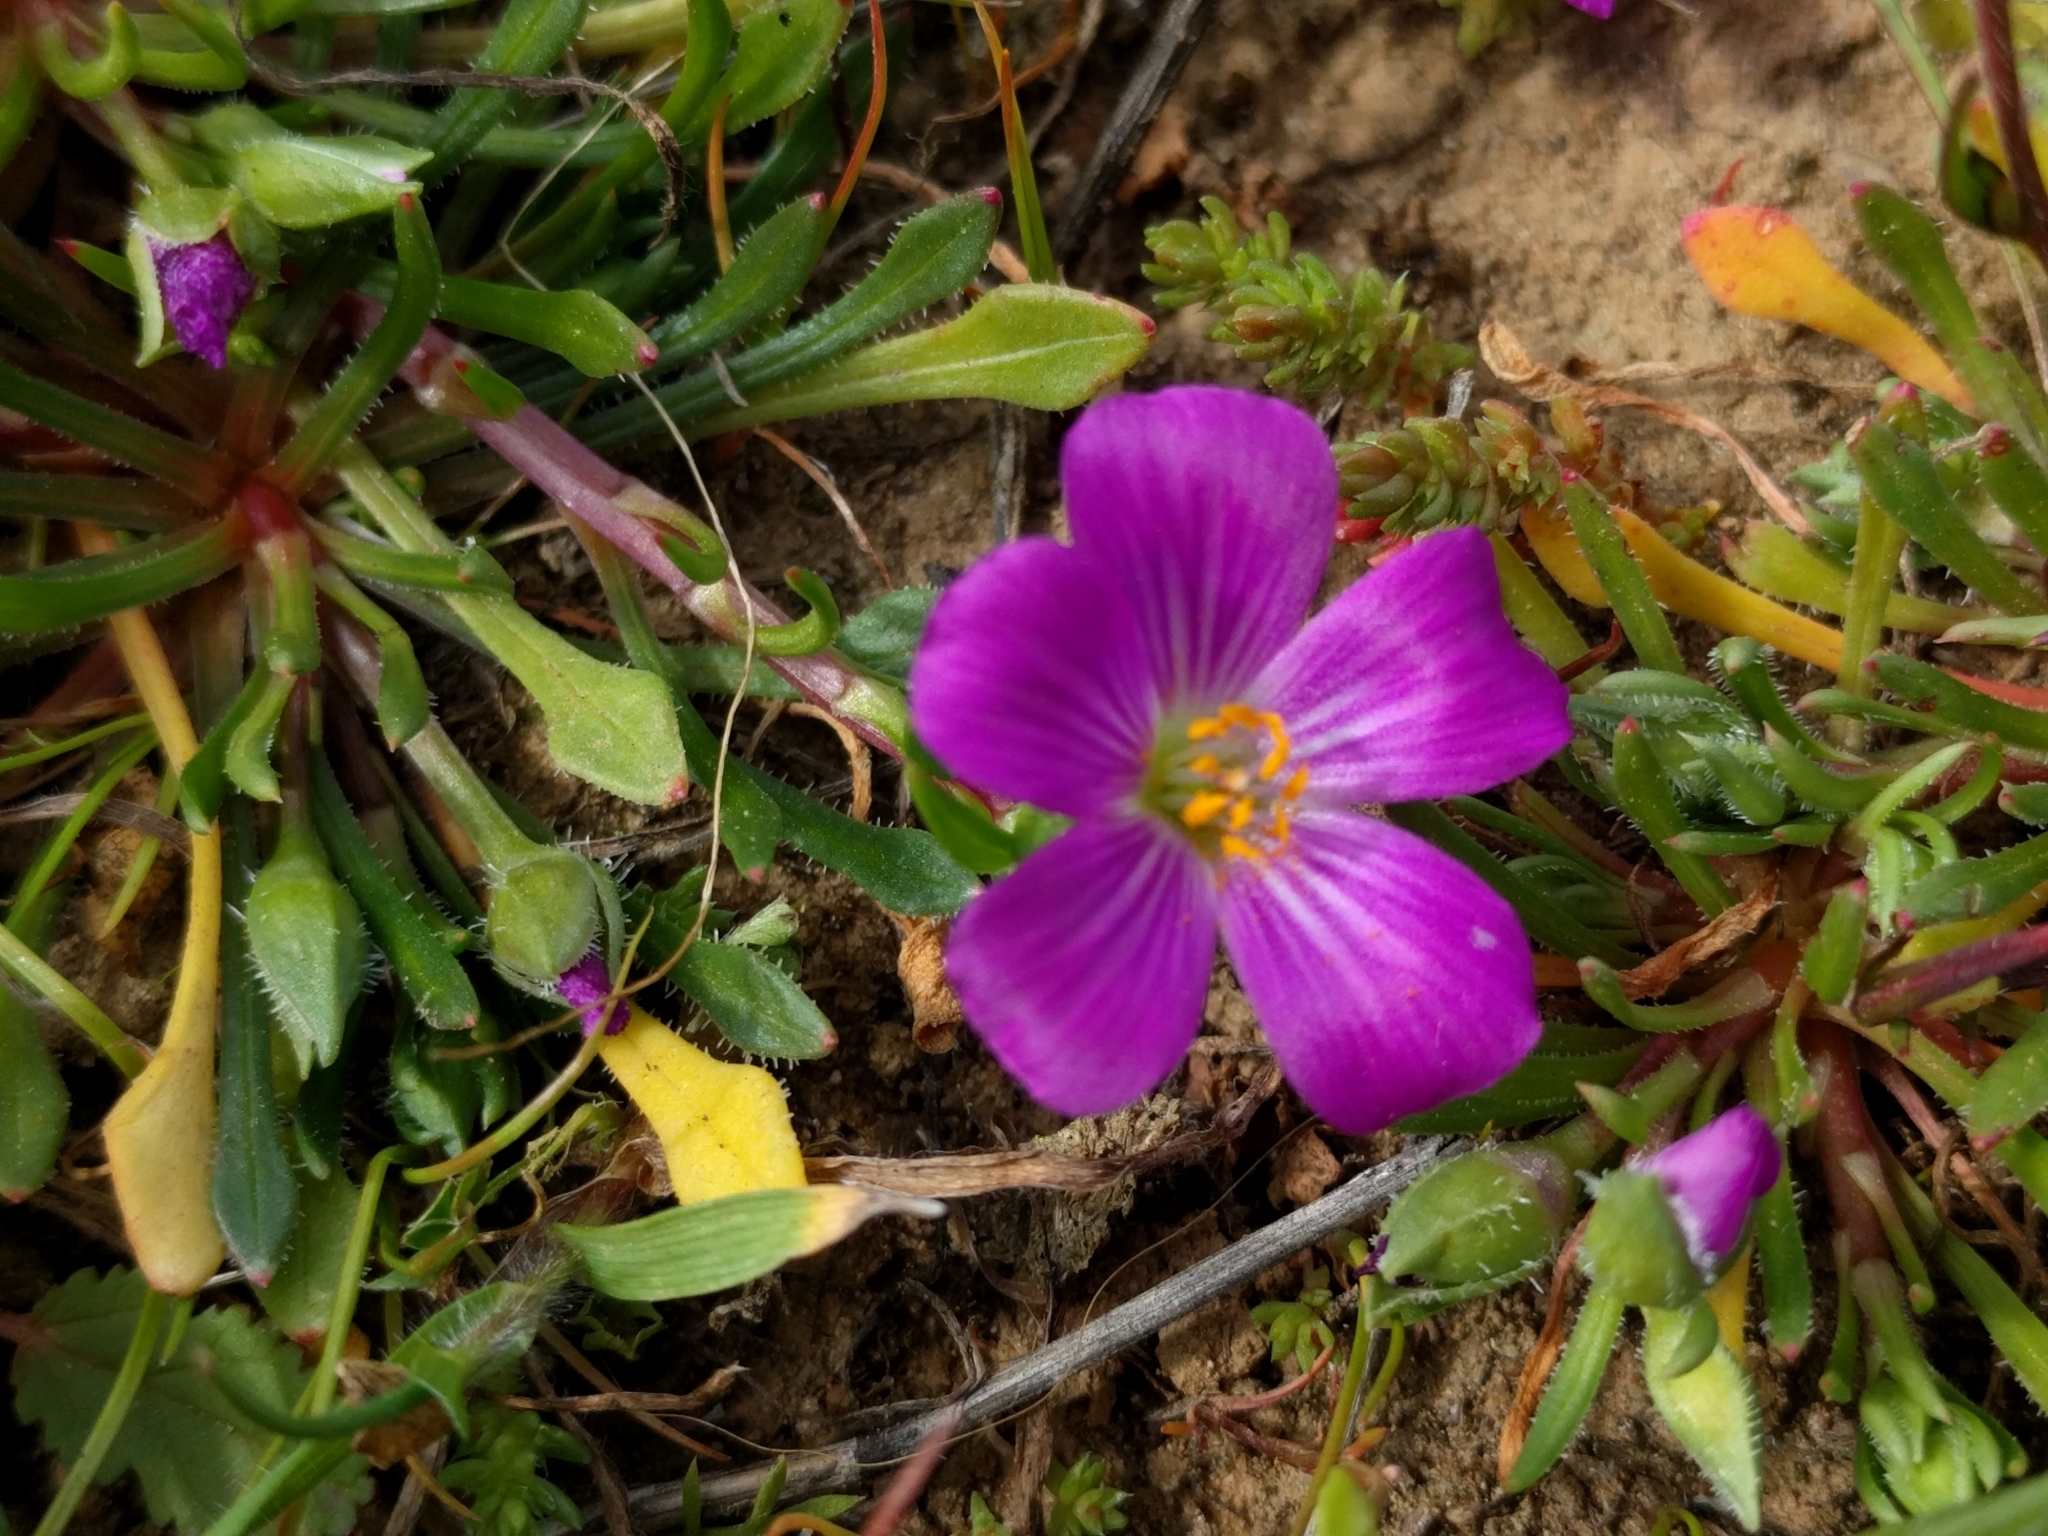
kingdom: Plantae
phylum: Tracheophyta
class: Magnoliopsida
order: Caryophyllales
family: Montiaceae
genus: Calandrinia
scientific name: Calandrinia menziesii
